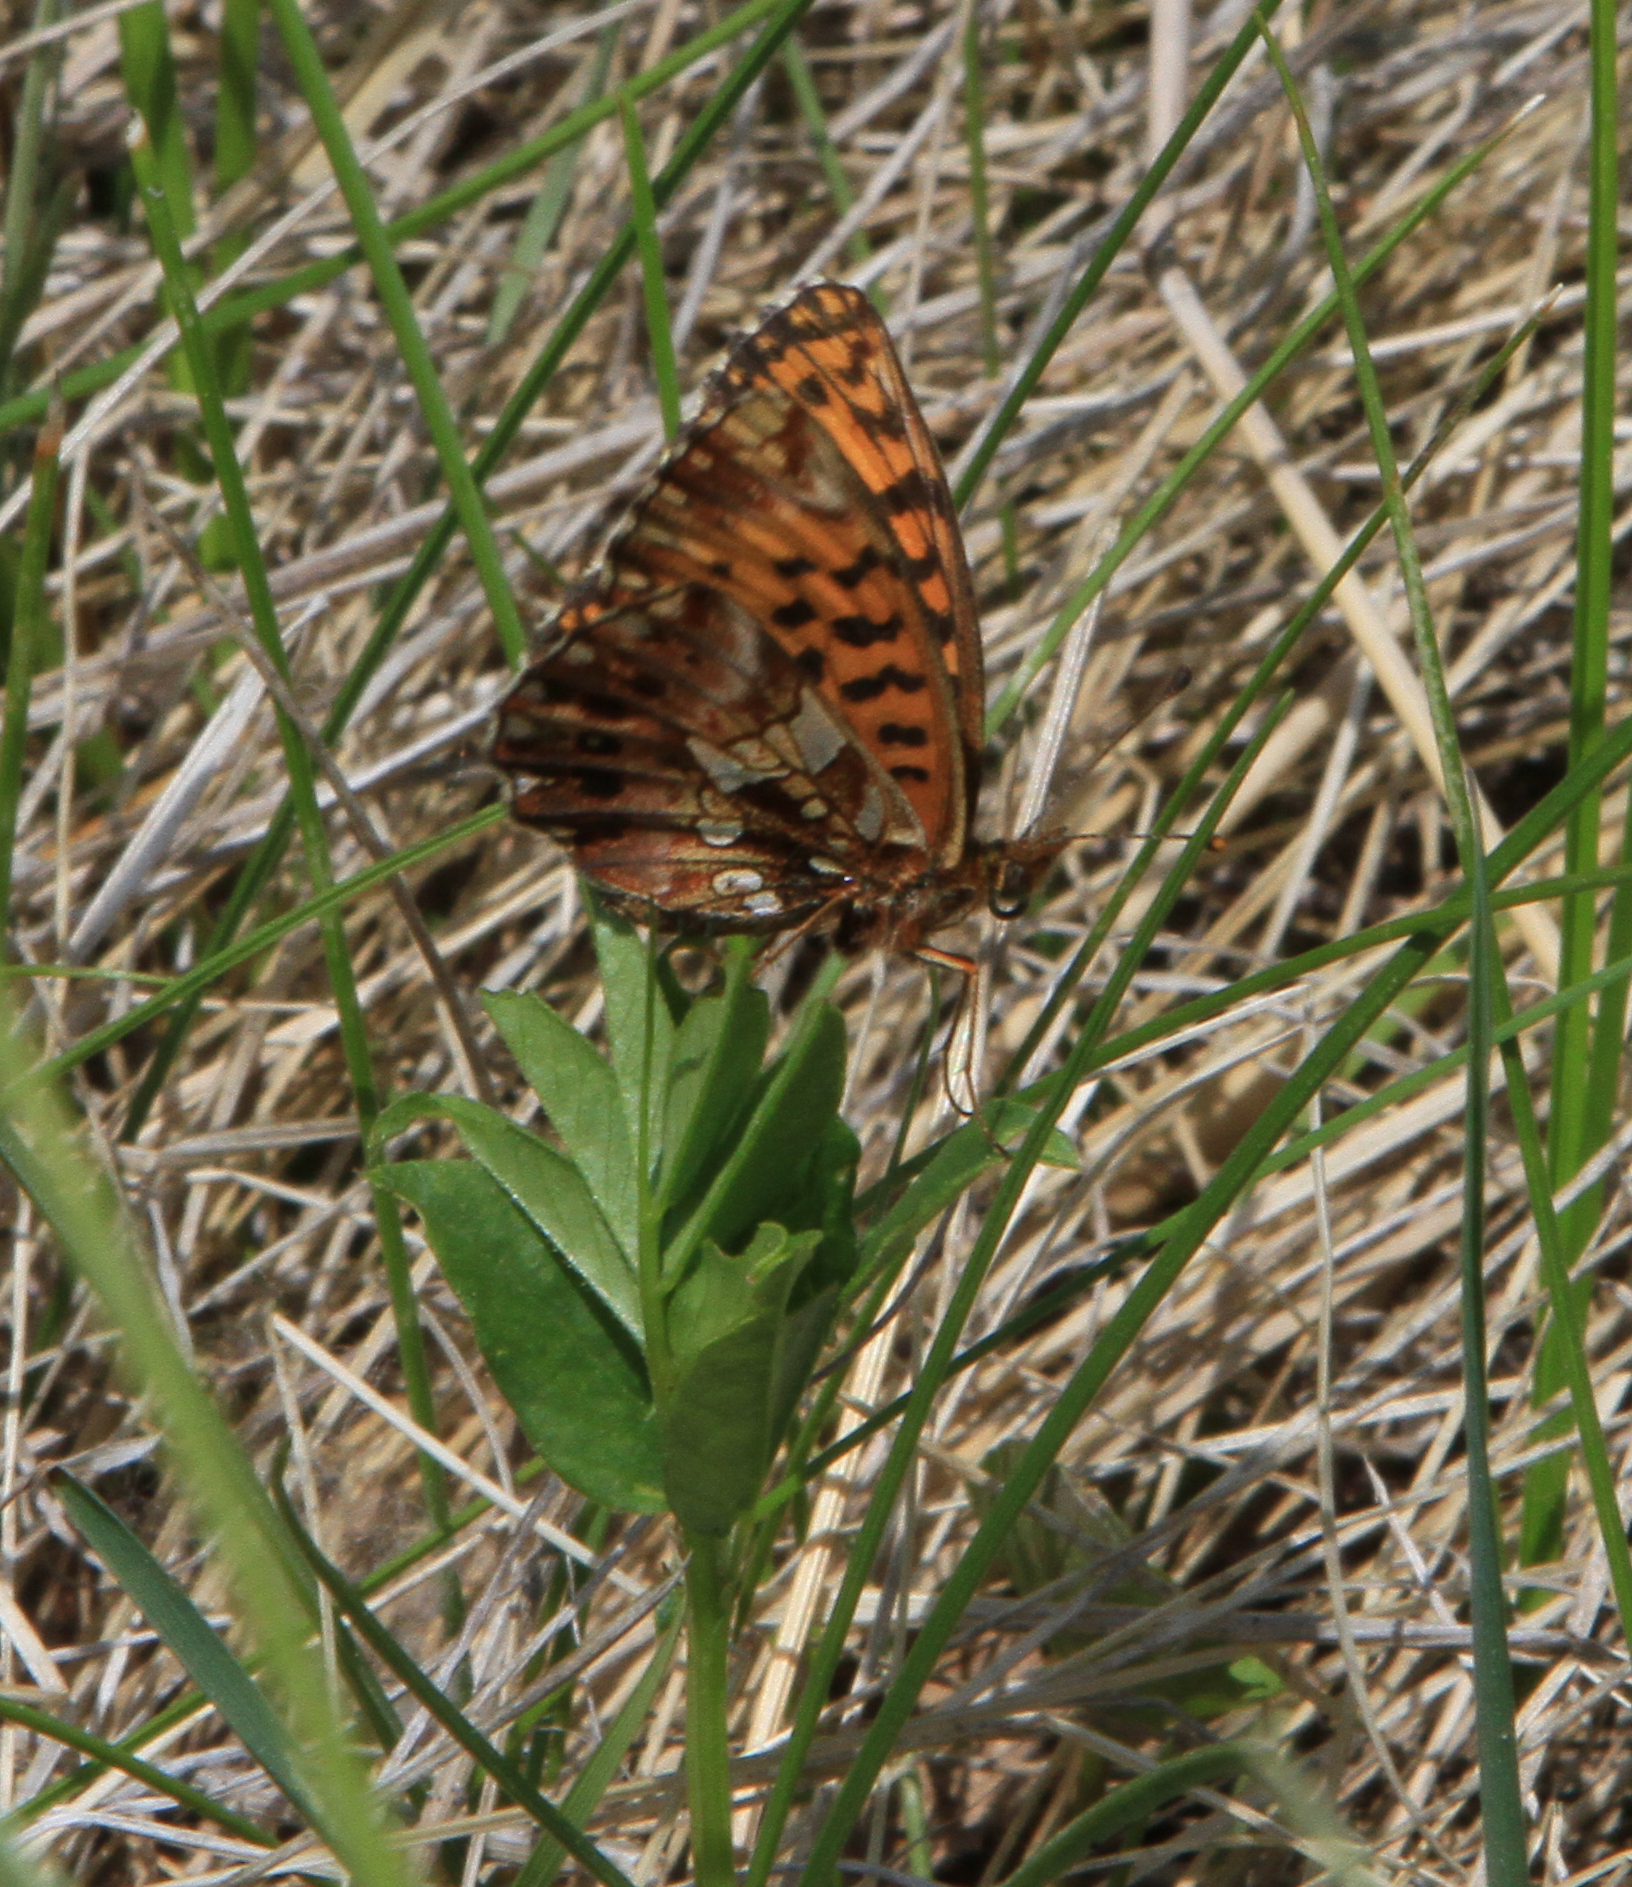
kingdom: Animalia
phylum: Arthropoda
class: Insecta
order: Lepidoptera
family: Nymphalidae
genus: Boloria
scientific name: Boloria dia
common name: Weaver's fritillary
